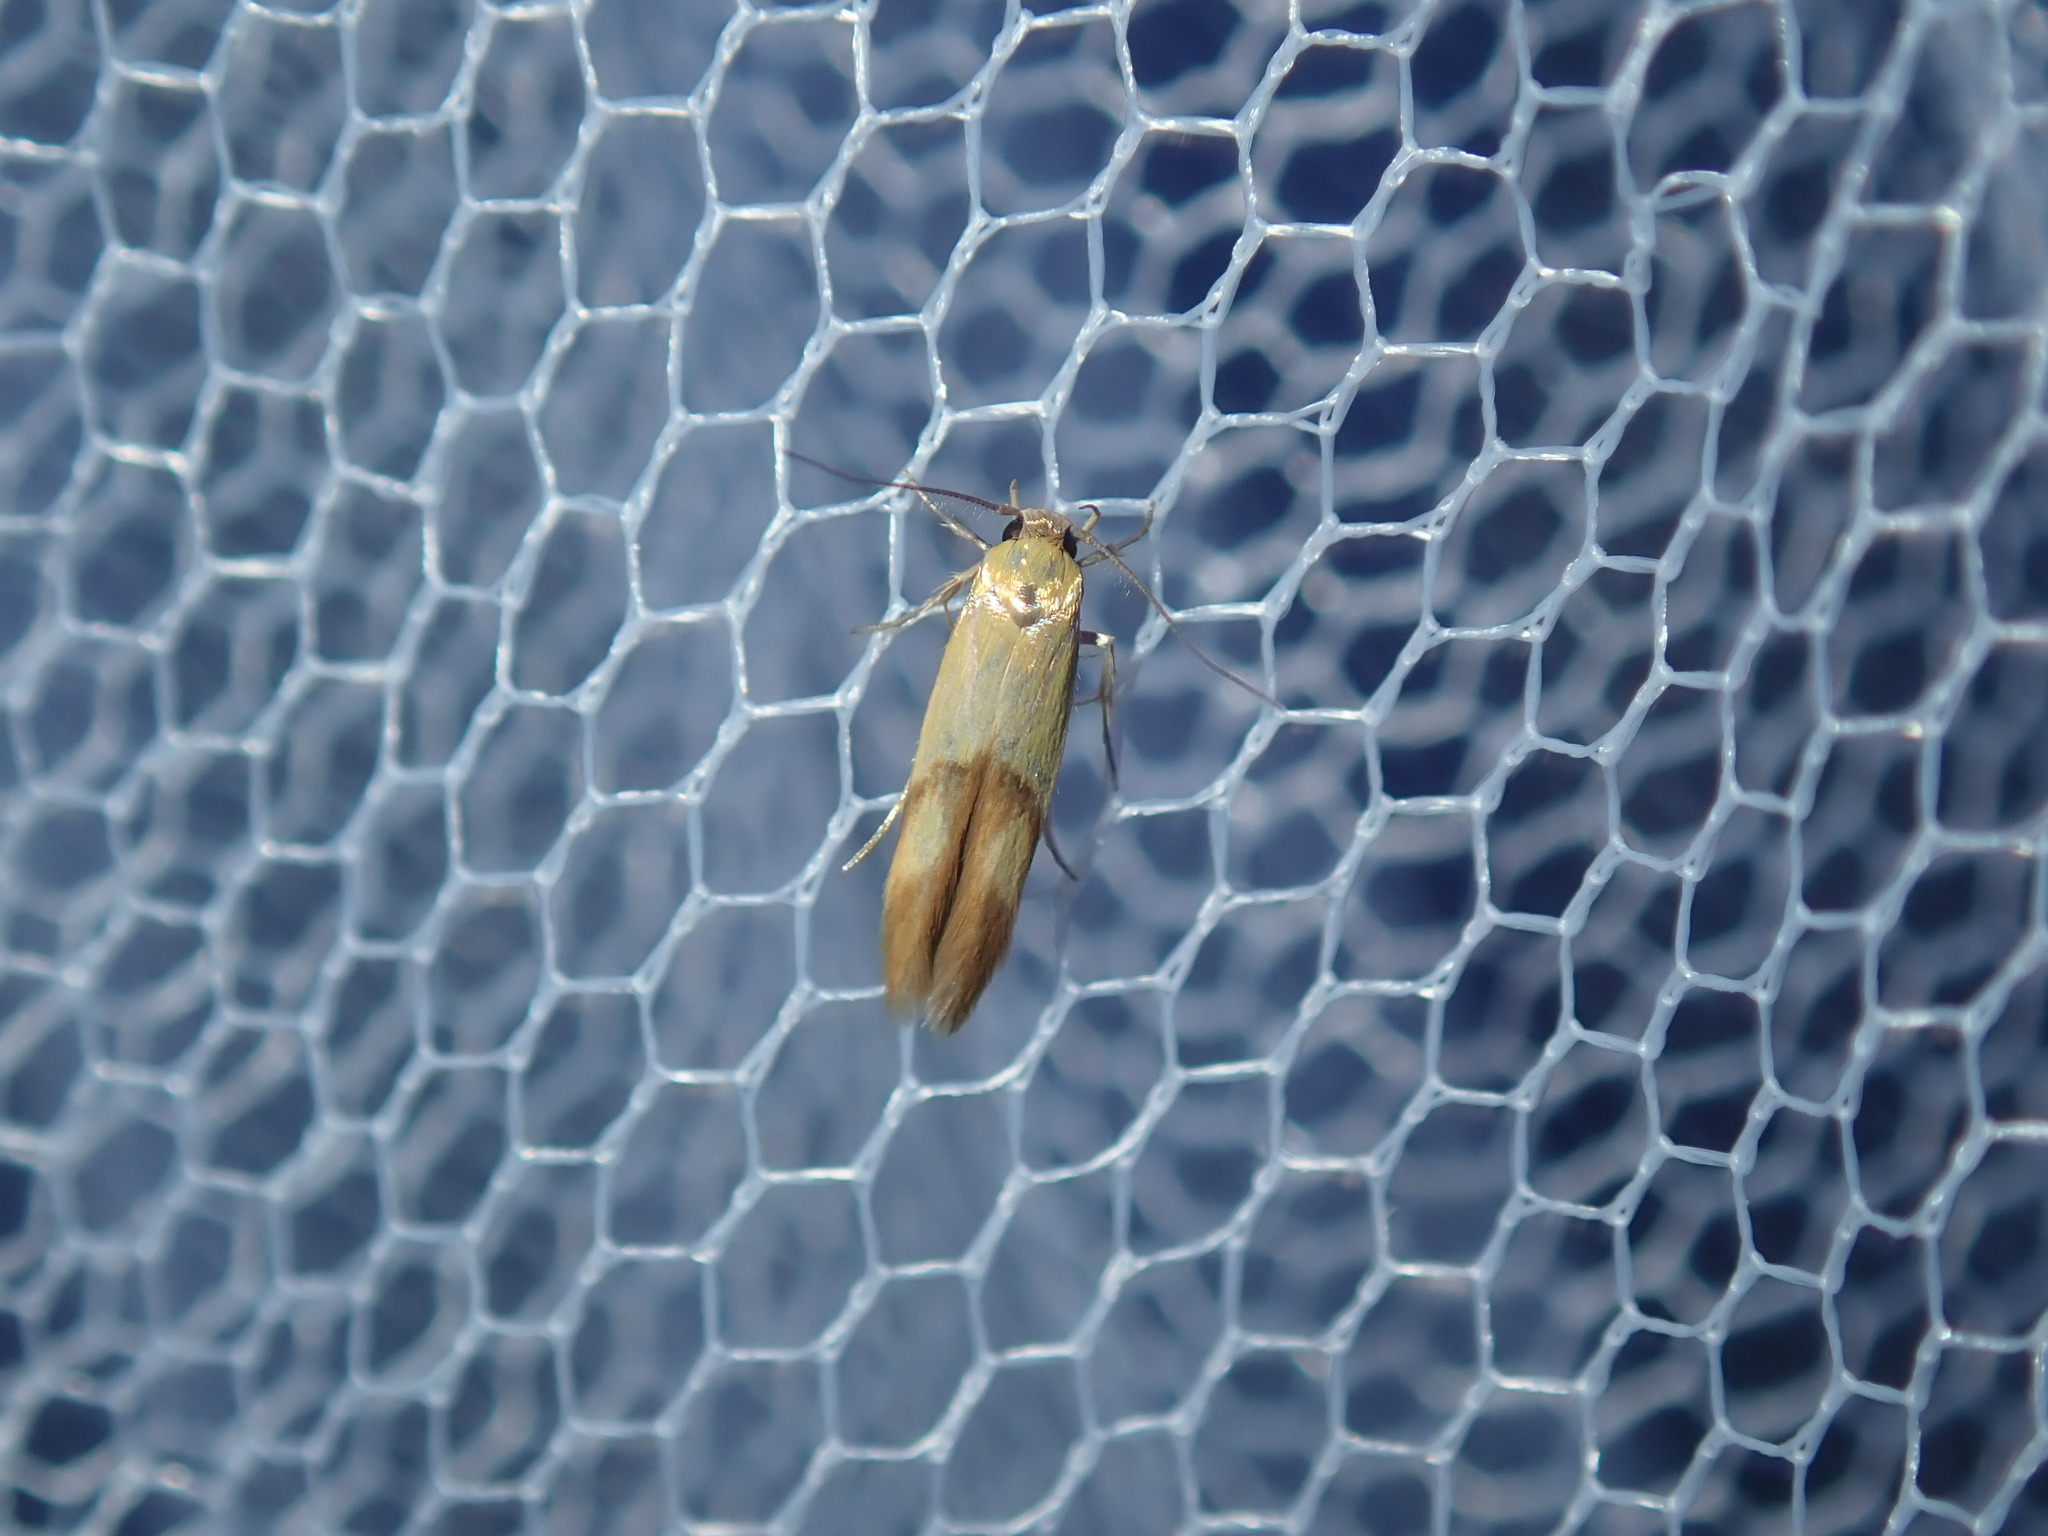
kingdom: Animalia
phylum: Arthropoda
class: Insecta
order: Lepidoptera
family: Stathmopodidae
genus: Stathmopoda
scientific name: Stathmopoda auriferella
